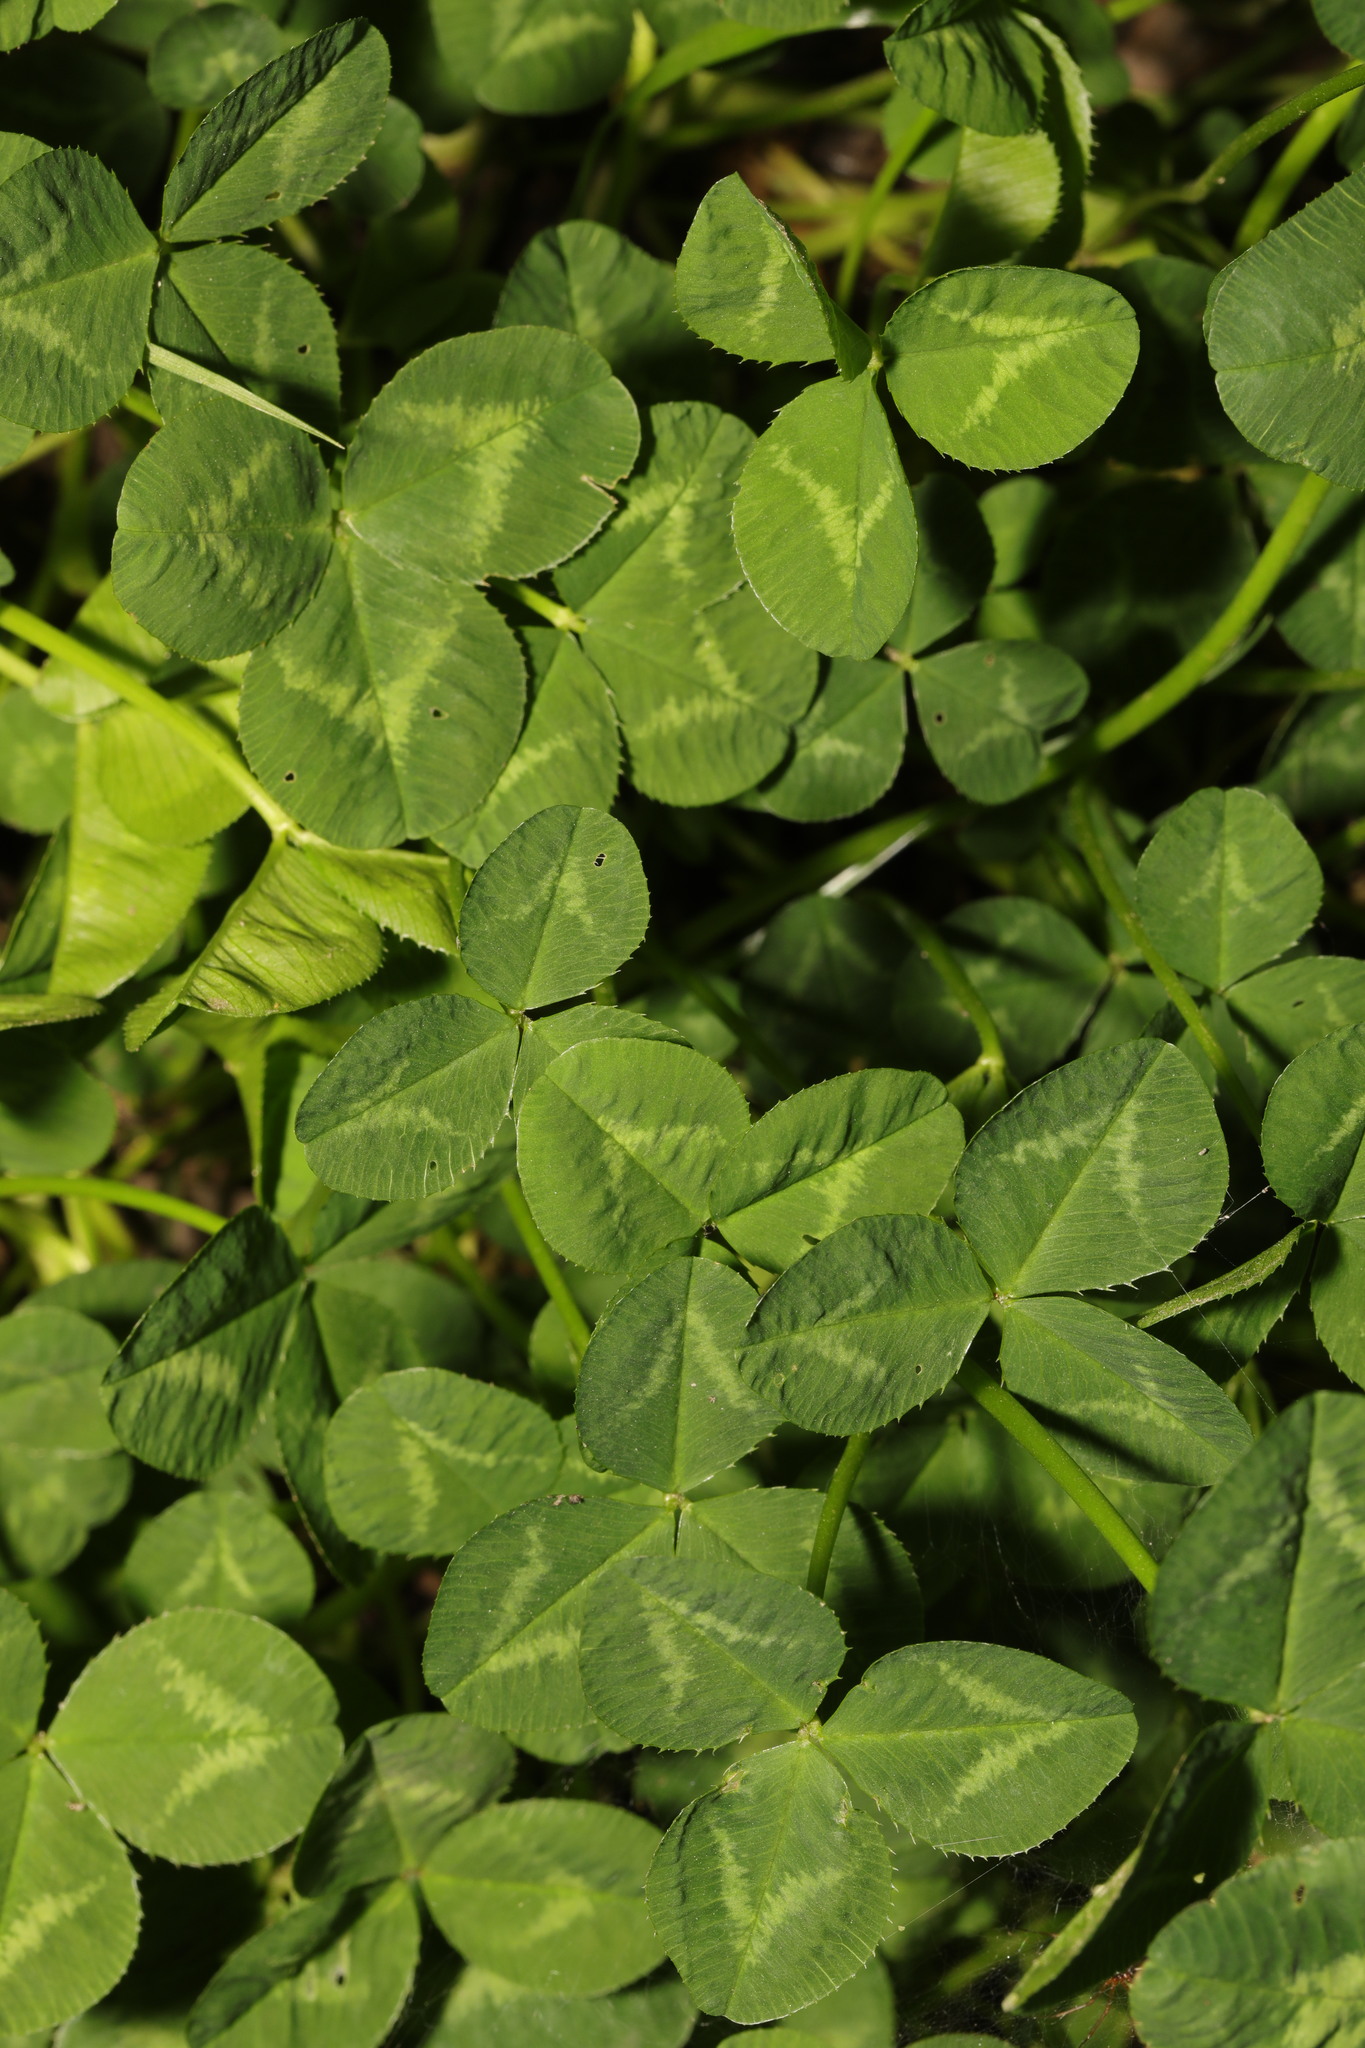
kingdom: Plantae
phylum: Tracheophyta
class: Magnoliopsida
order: Fabales
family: Fabaceae
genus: Trifolium
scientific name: Trifolium repens
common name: White clover
